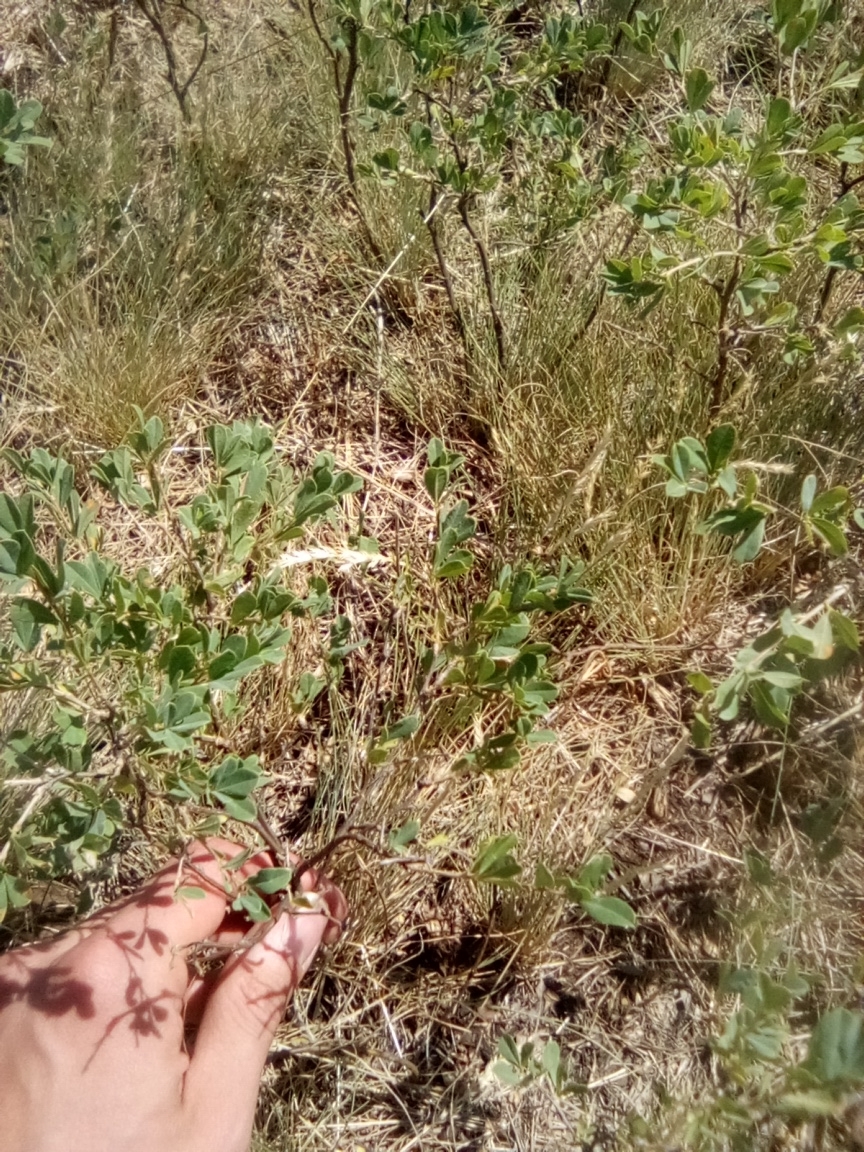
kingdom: Plantae
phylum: Tracheophyta
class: Magnoliopsida
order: Fabales
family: Fabaceae
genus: Caragana
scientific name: Caragana frutex
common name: Russian peashrub
